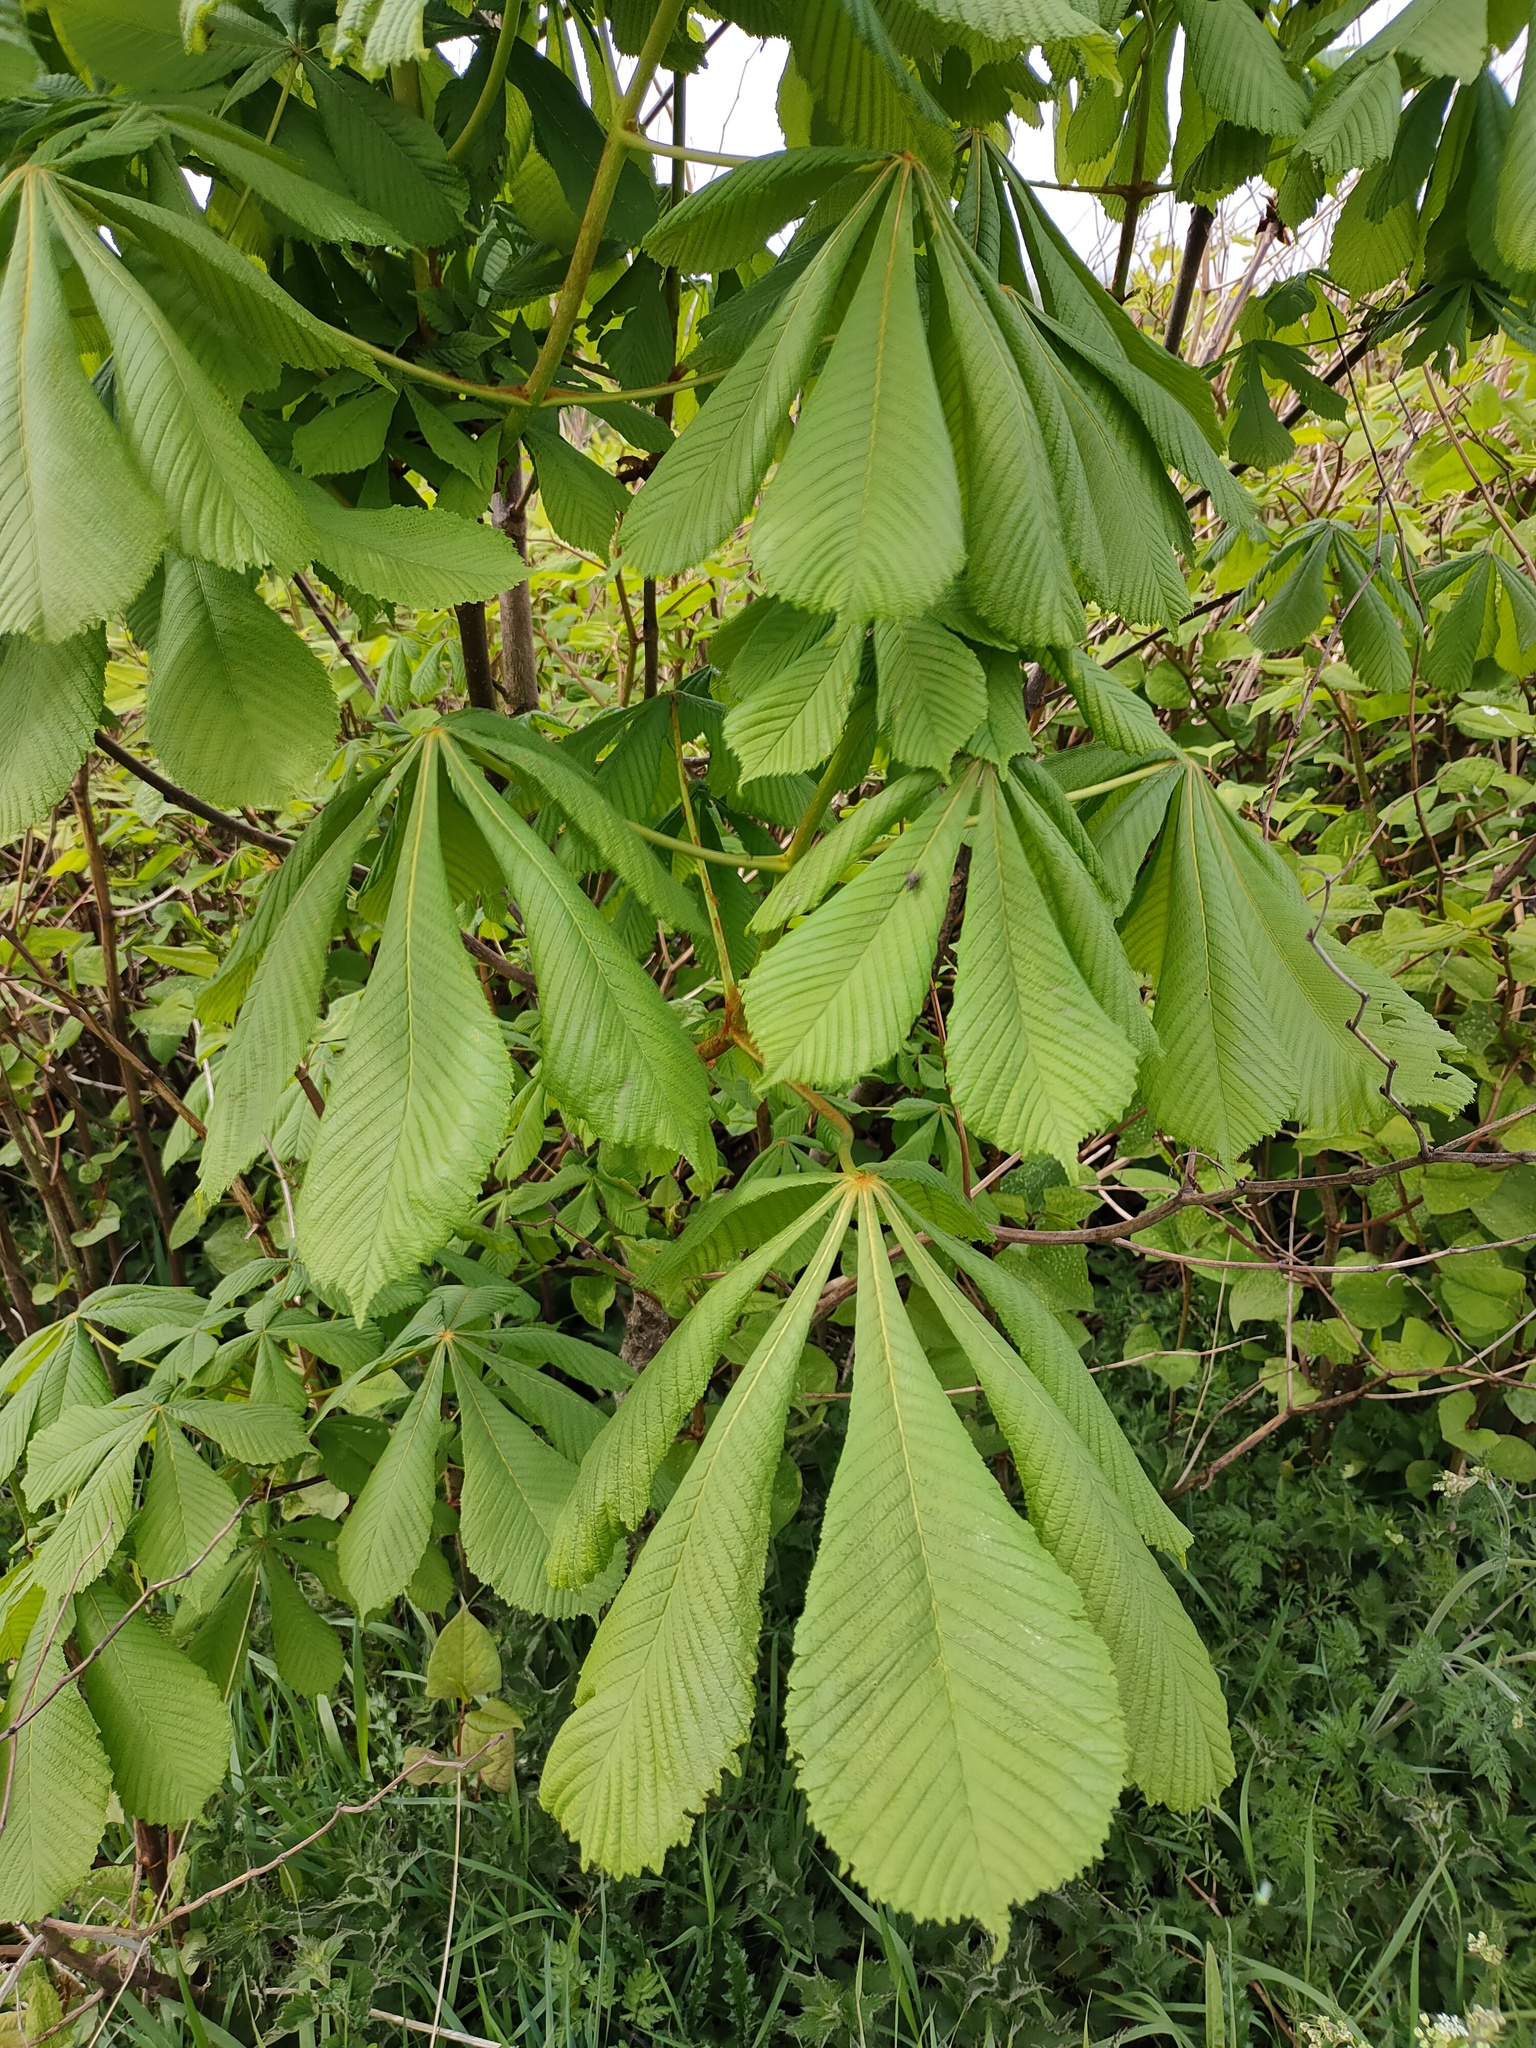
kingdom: Plantae
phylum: Tracheophyta
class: Magnoliopsida
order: Sapindales
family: Sapindaceae
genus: Aesculus
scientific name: Aesculus hippocastanum
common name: Horse-chestnut
